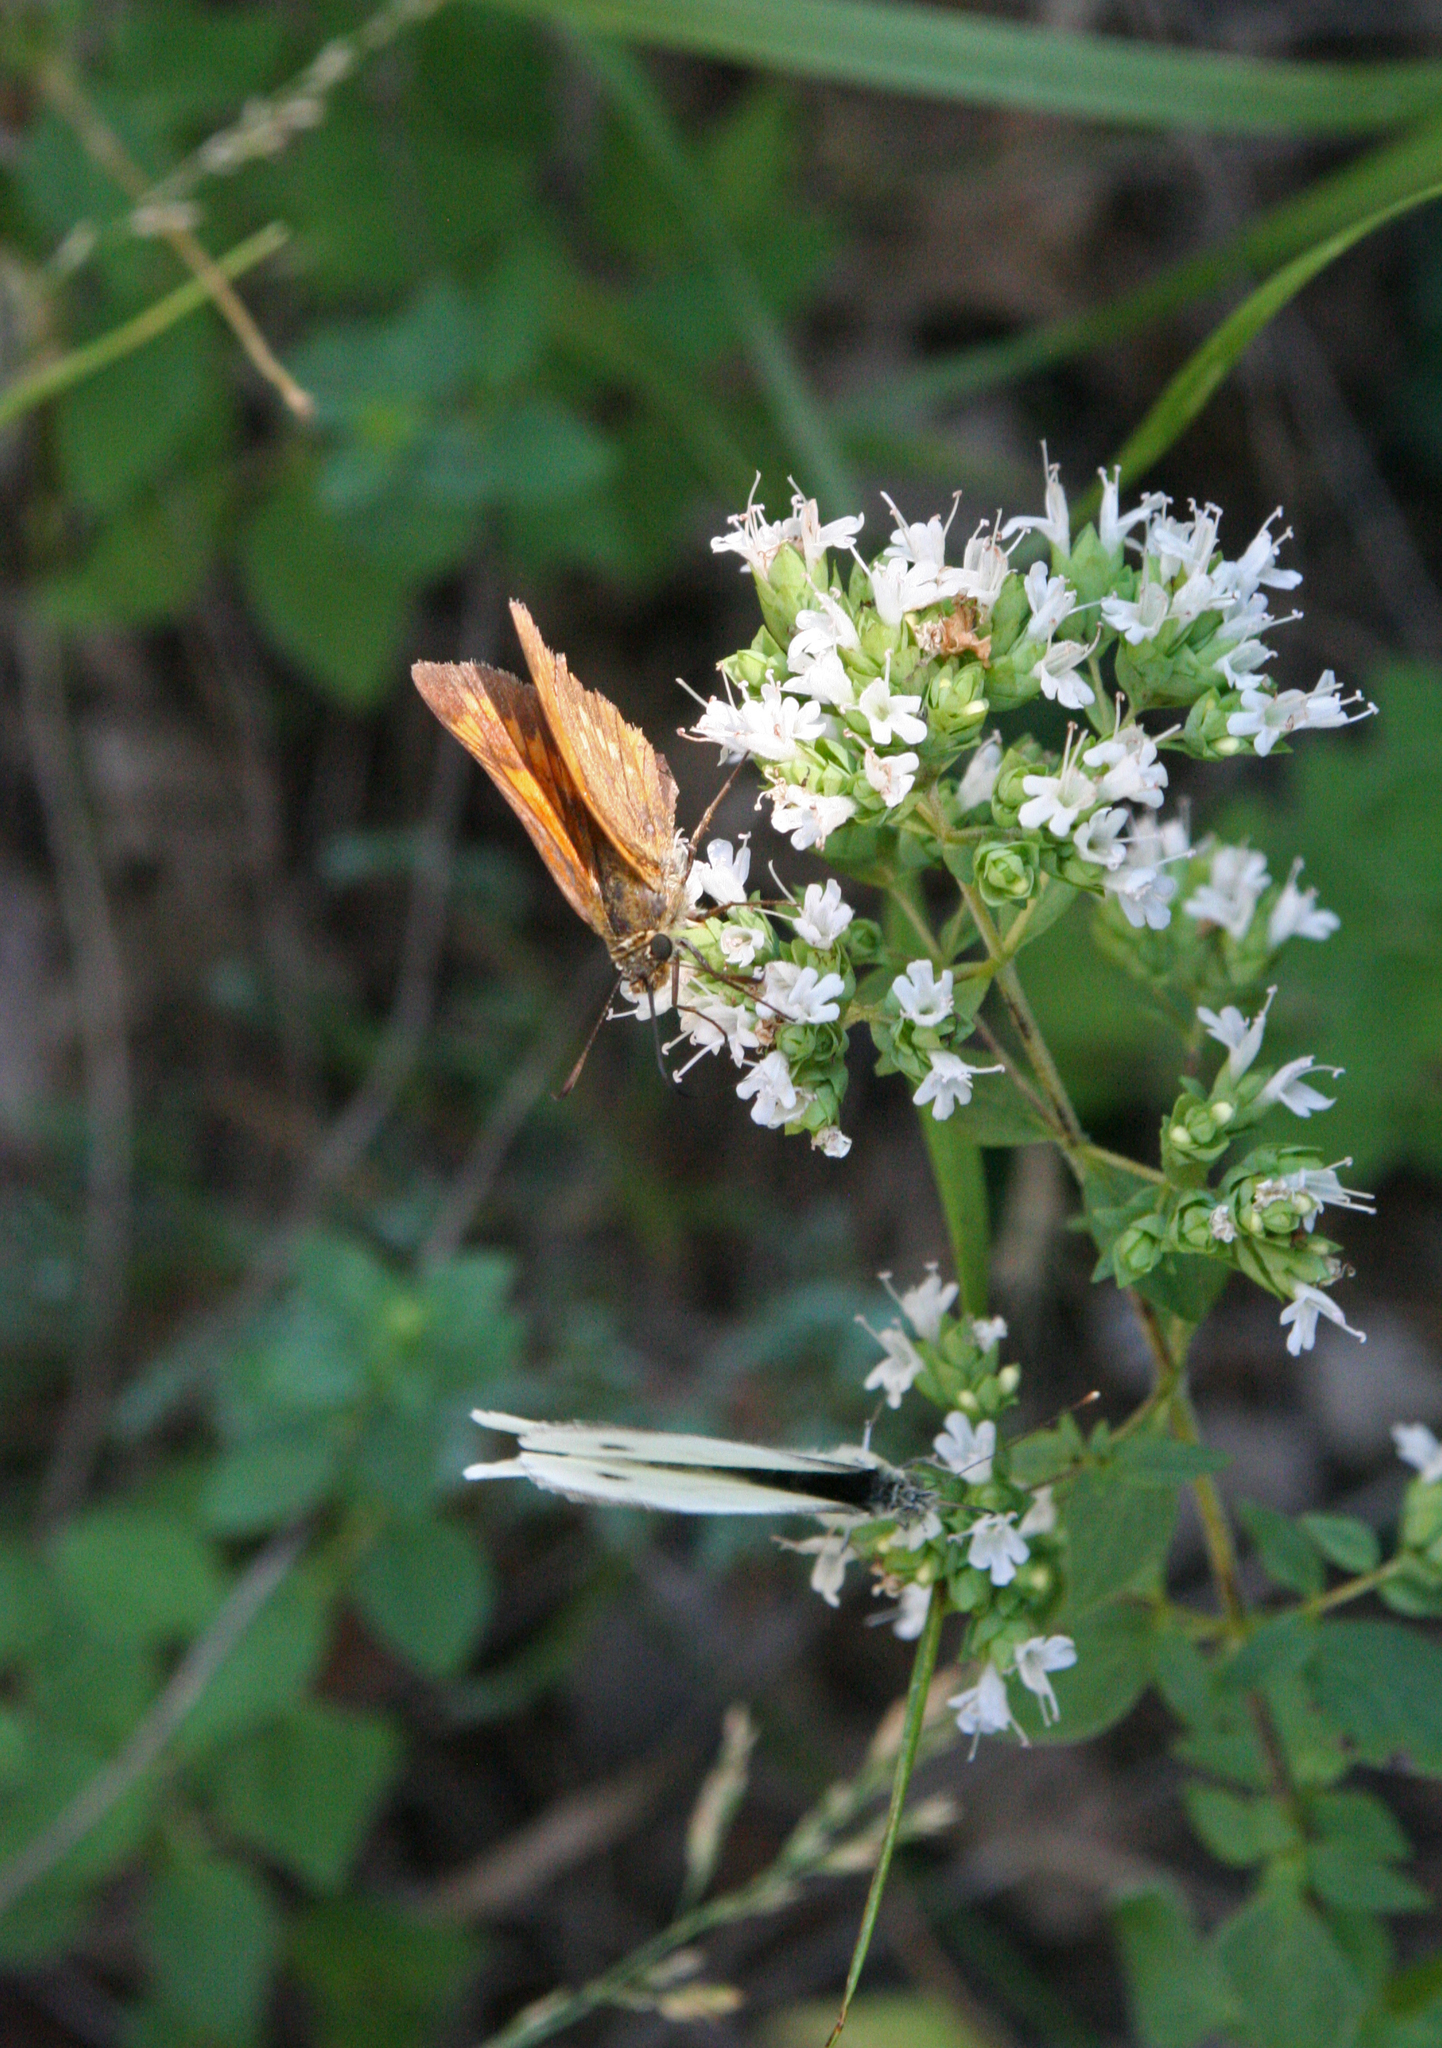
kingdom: Animalia
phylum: Arthropoda
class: Insecta
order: Lepidoptera
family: Hesperiidae
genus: Ochlodes
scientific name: Ochlodes venata
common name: Large skipper
